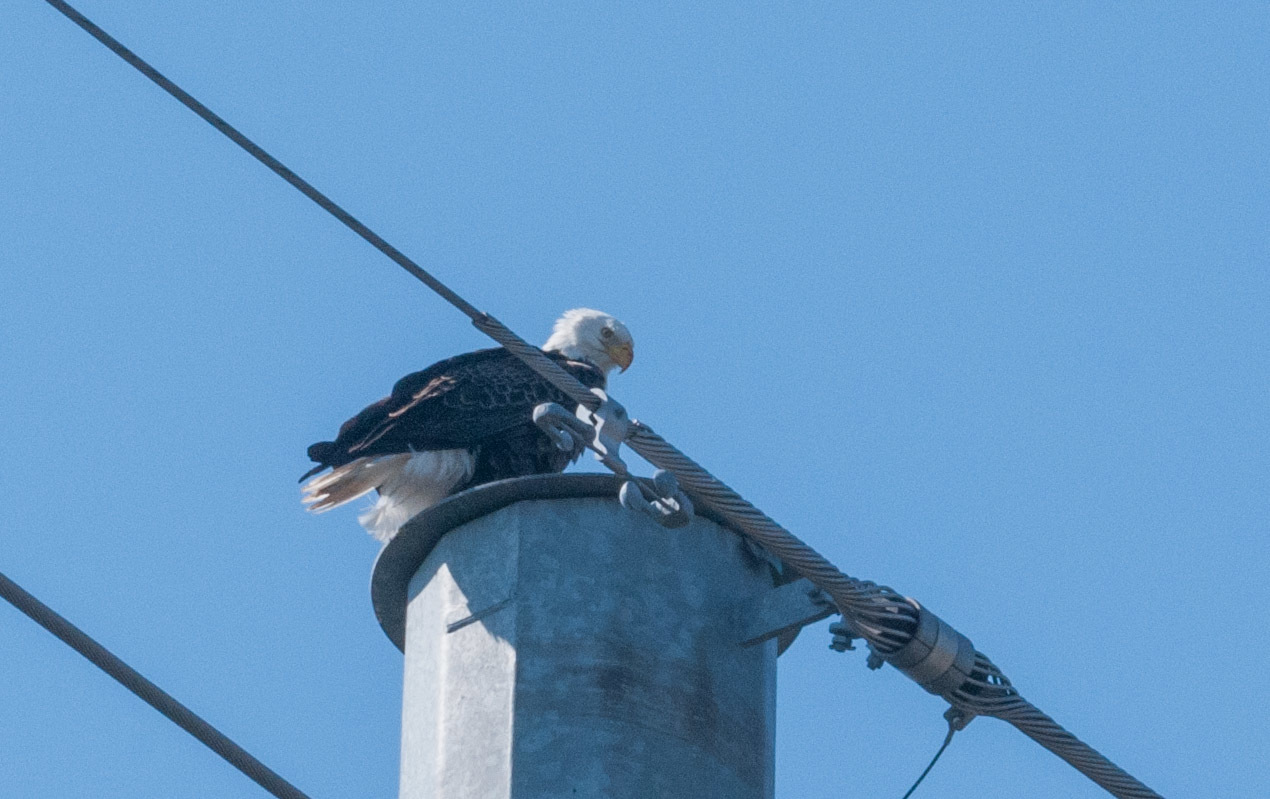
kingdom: Animalia
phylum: Chordata
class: Aves
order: Accipitriformes
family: Accipitridae
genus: Haliaeetus
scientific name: Haliaeetus leucocephalus
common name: Bald eagle
